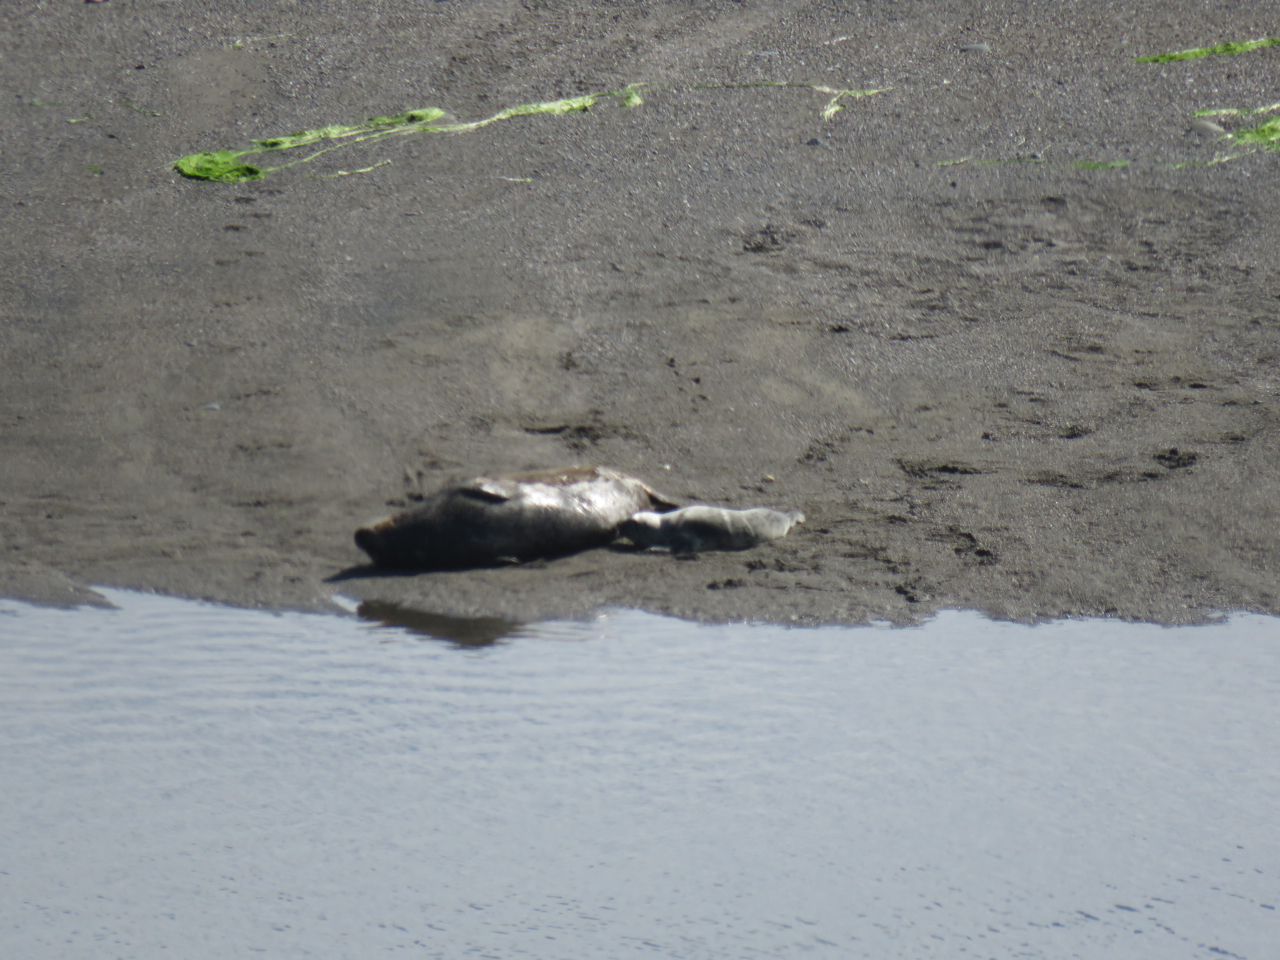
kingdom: Animalia
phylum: Chordata
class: Mammalia
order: Carnivora
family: Phocidae
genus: Phoca
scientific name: Phoca vitulina
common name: Harbor seal
